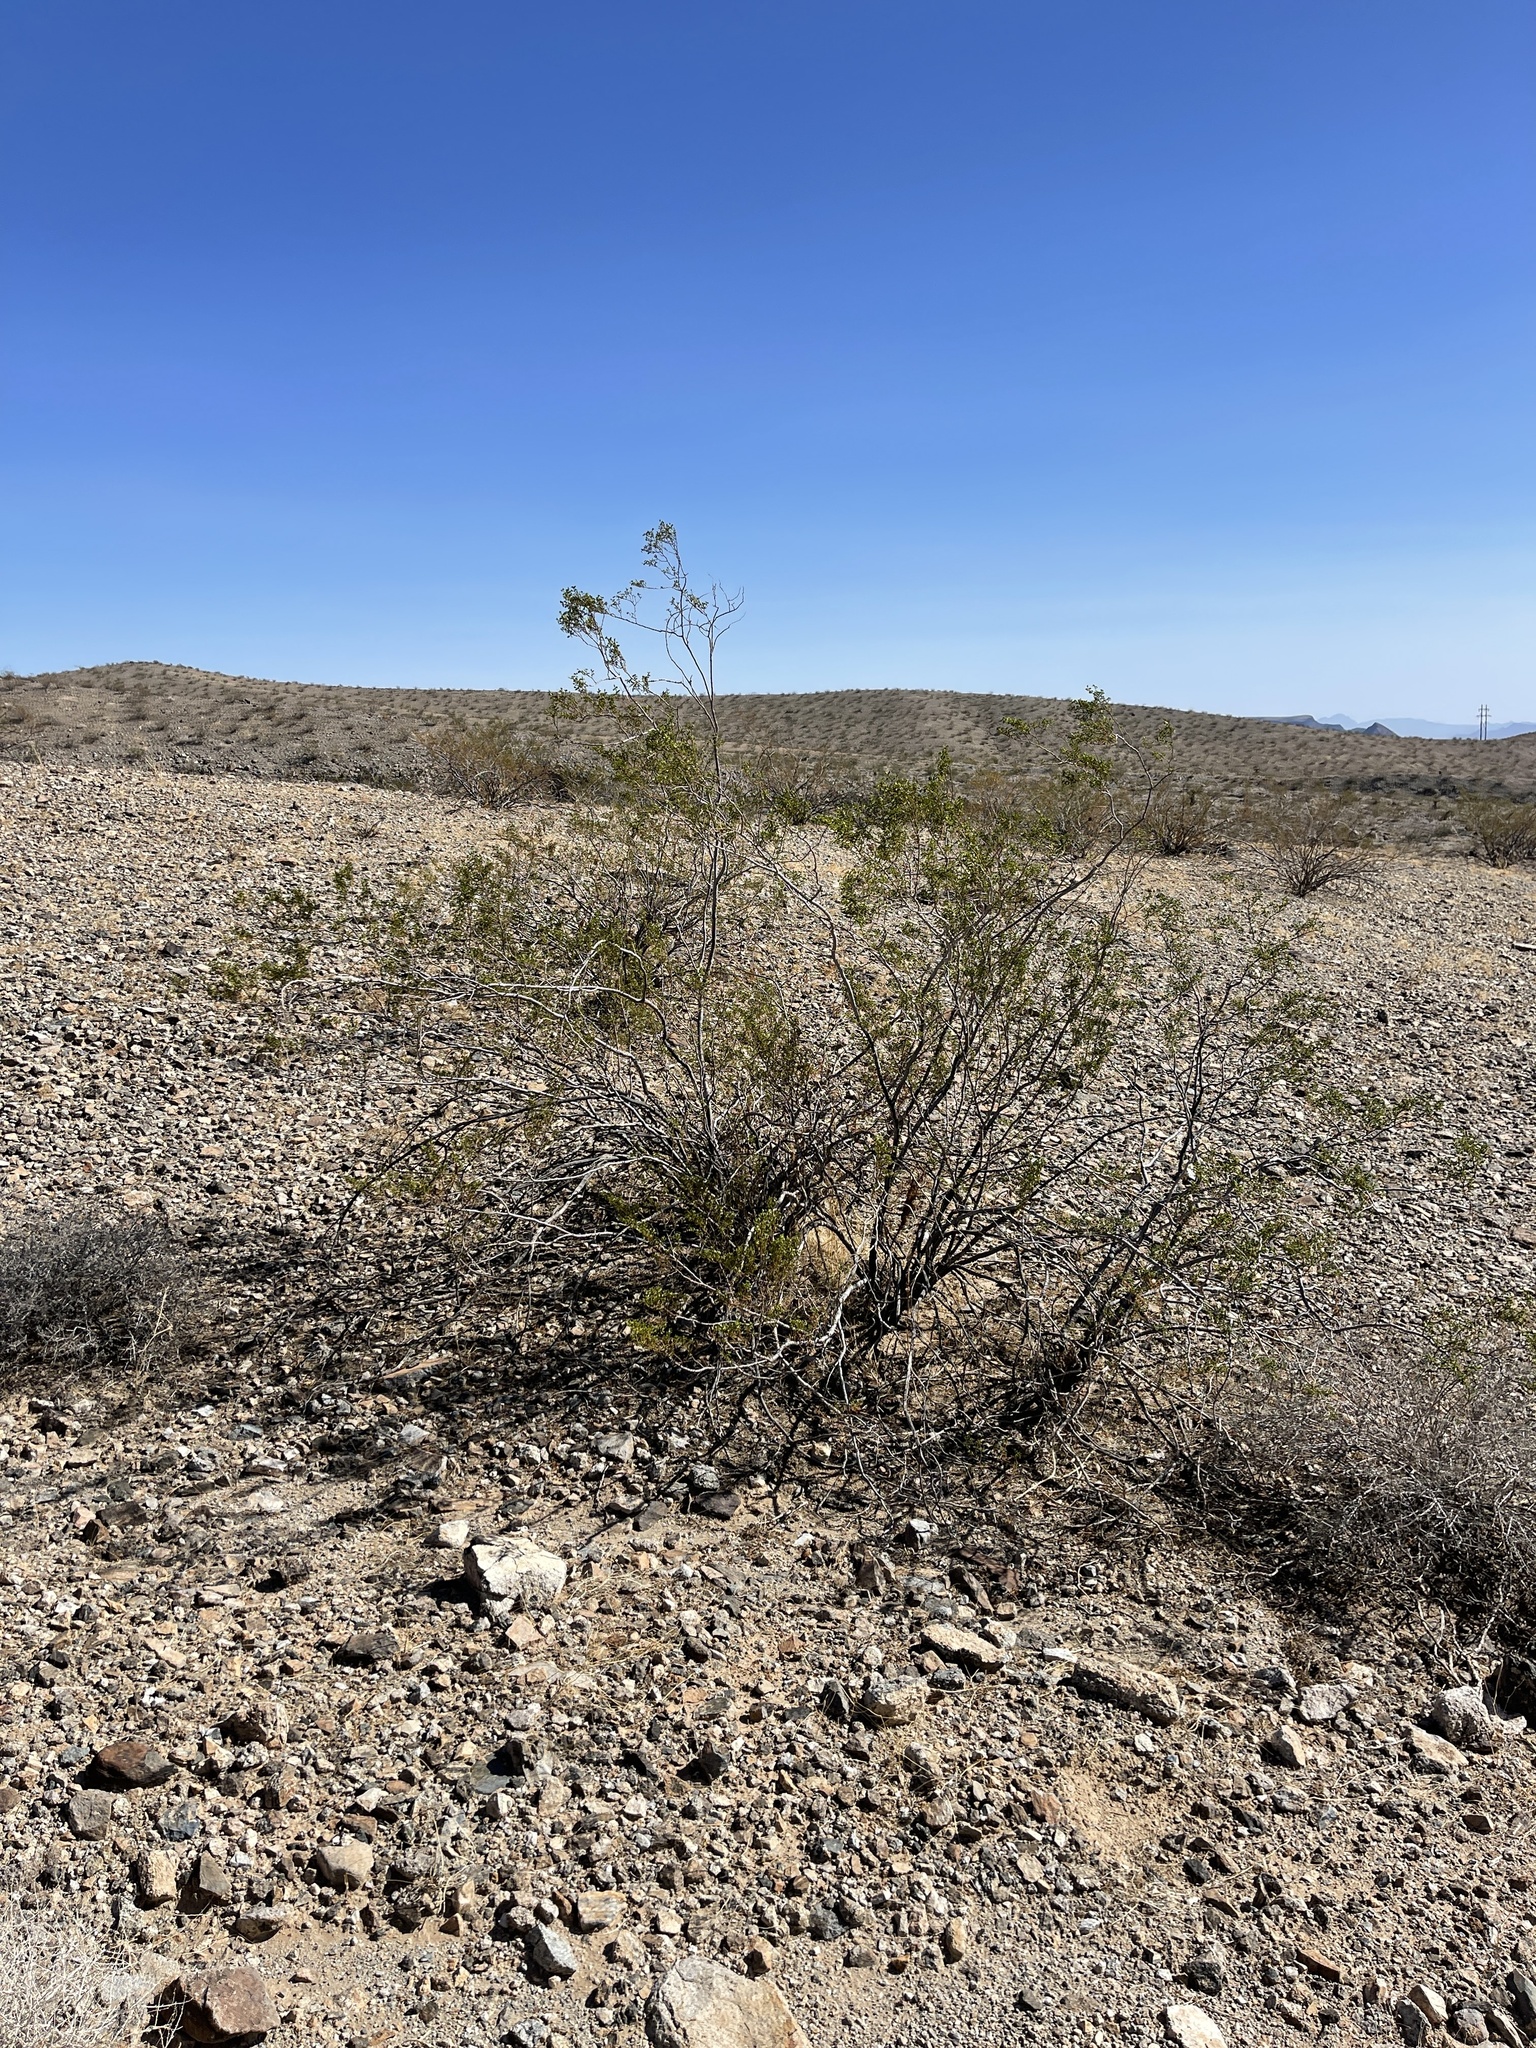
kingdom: Plantae
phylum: Tracheophyta
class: Magnoliopsida
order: Zygophyllales
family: Zygophyllaceae
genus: Larrea
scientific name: Larrea tridentata
